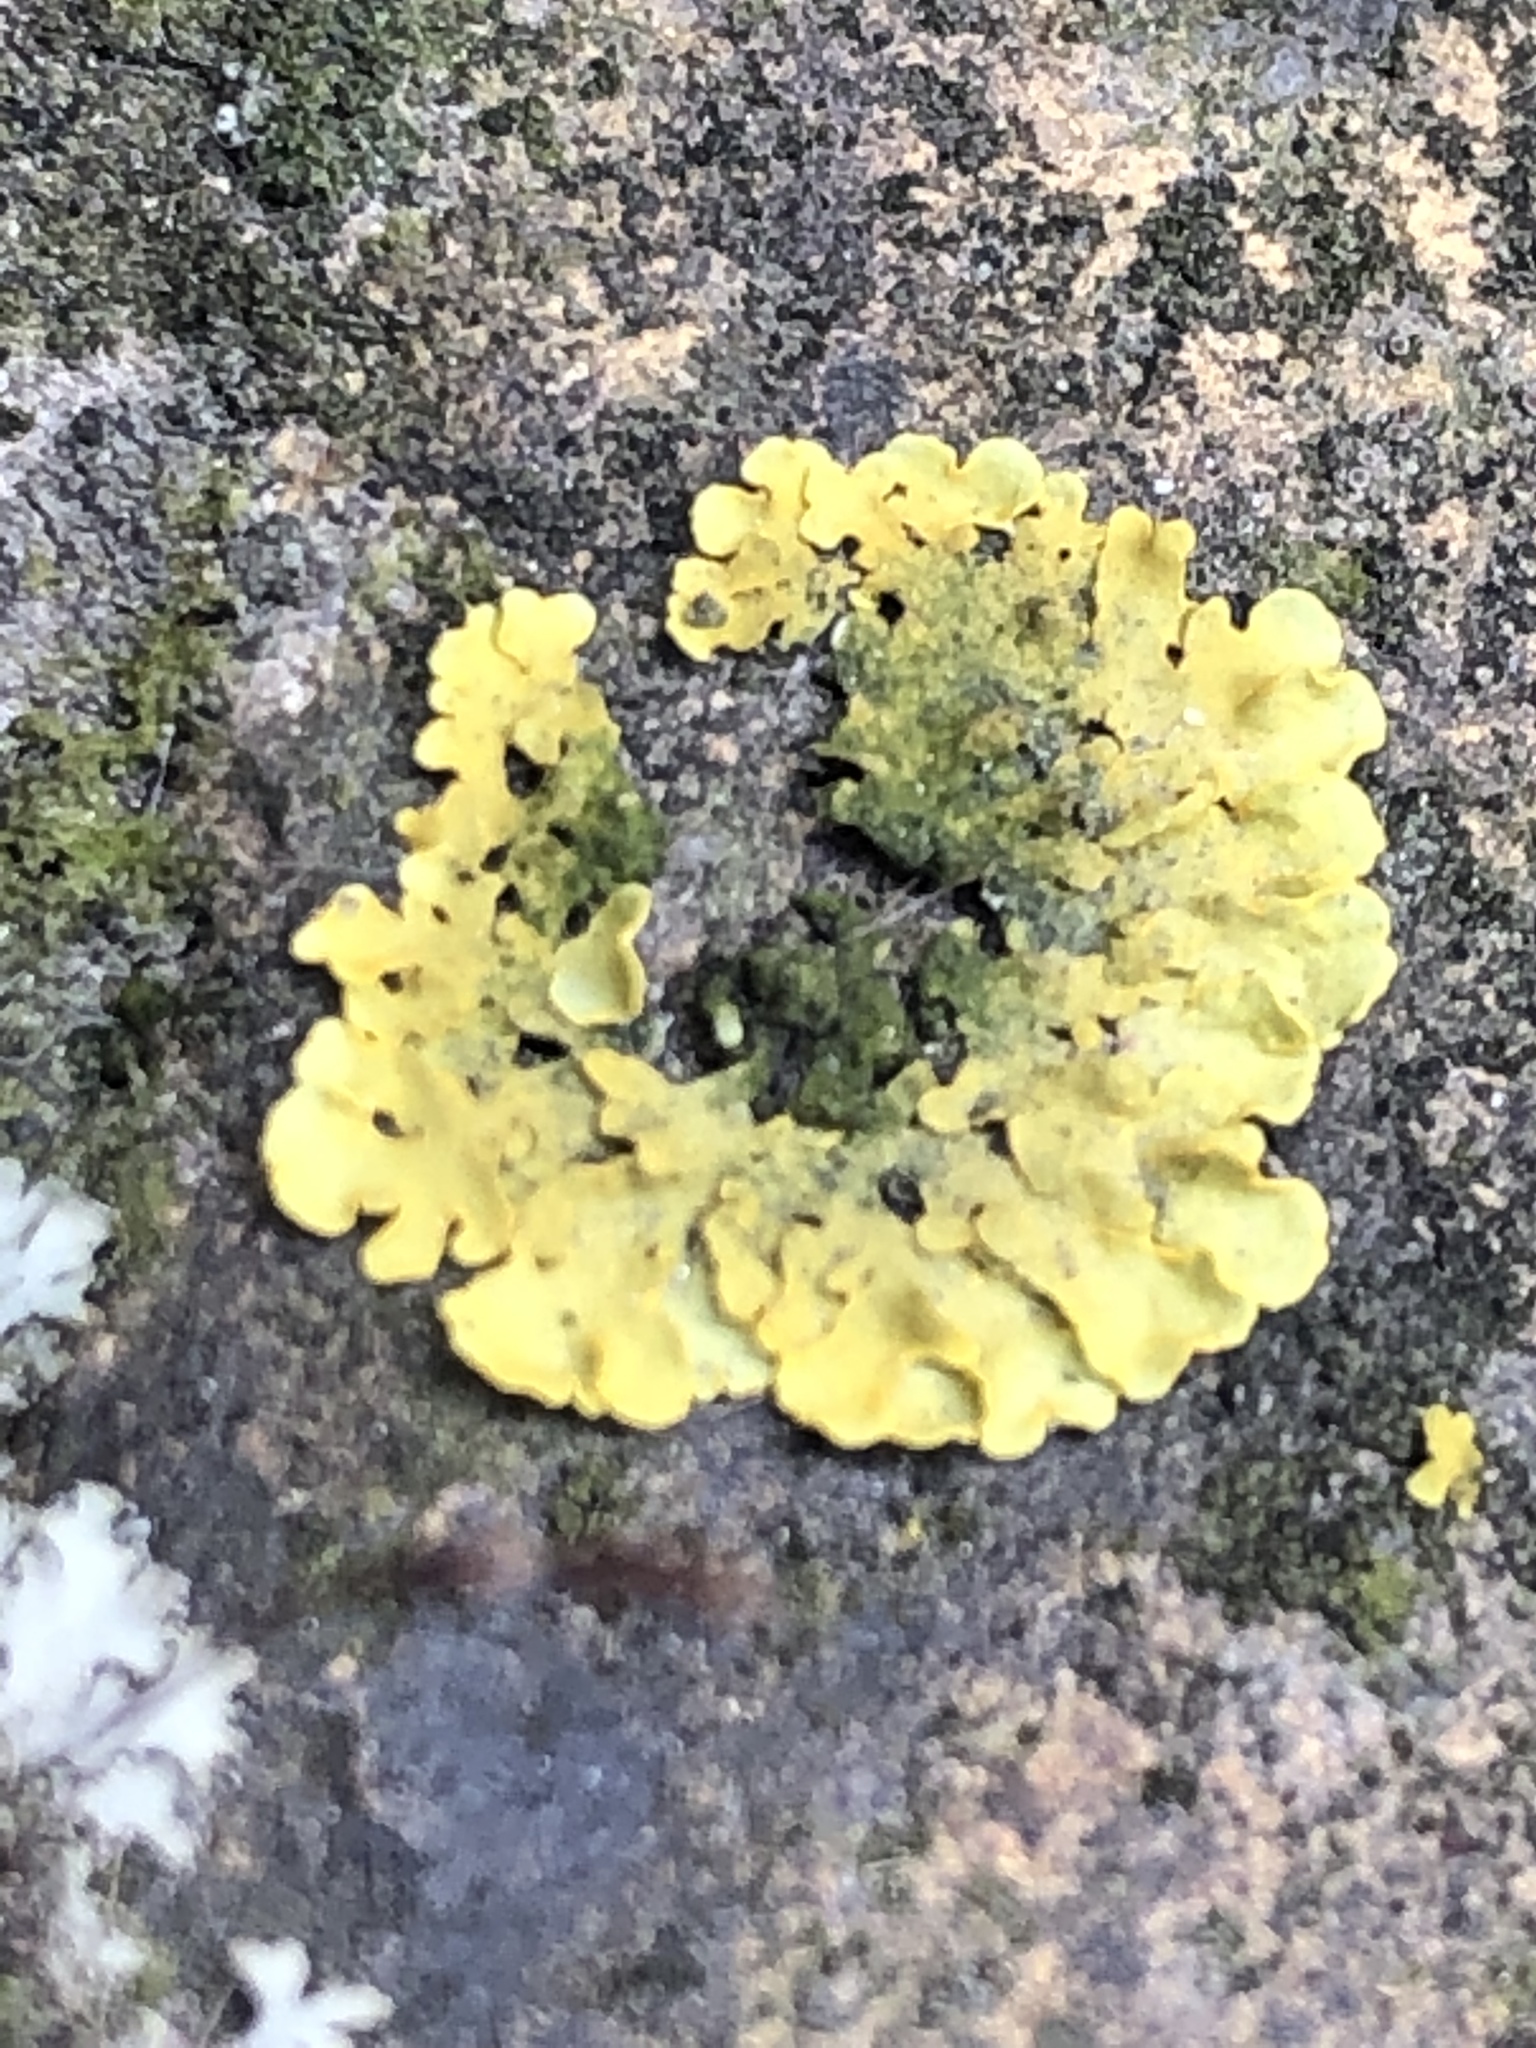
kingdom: Fungi
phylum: Ascomycota
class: Lecanoromycetes
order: Teloschistales
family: Teloschistaceae
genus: Xanthoria
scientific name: Xanthoria parietina
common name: Common orange lichen
